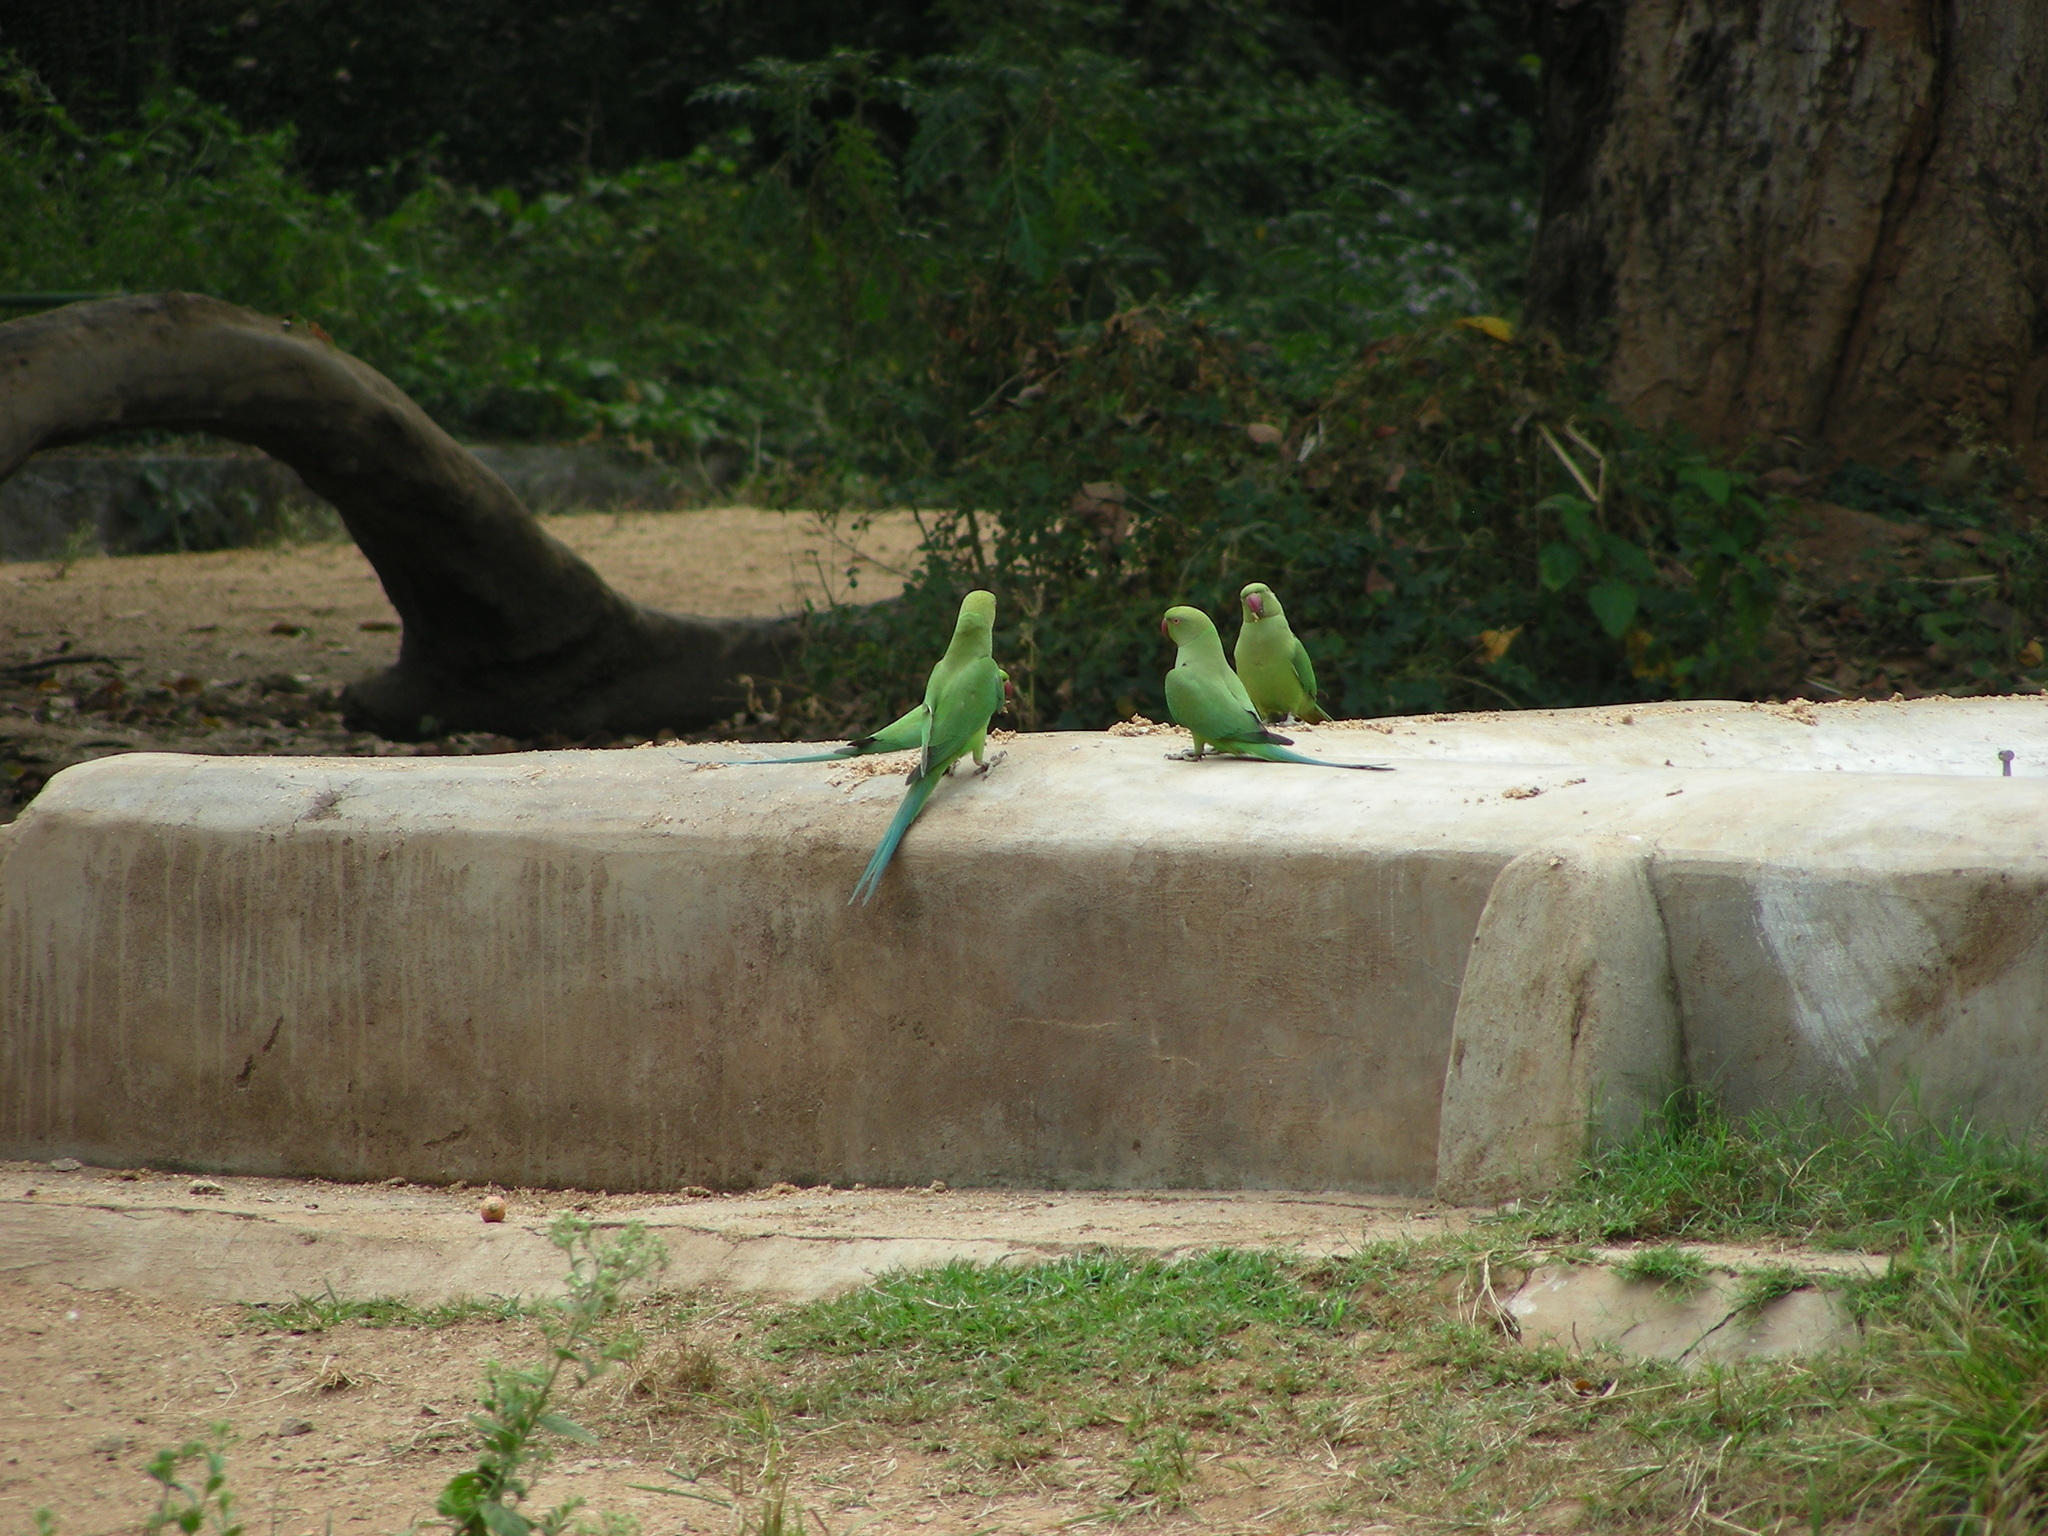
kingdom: Animalia
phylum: Chordata
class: Aves
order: Psittaciformes
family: Psittacidae
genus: Psittacula
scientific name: Psittacula krameri
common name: Rose-ringed parakeet
